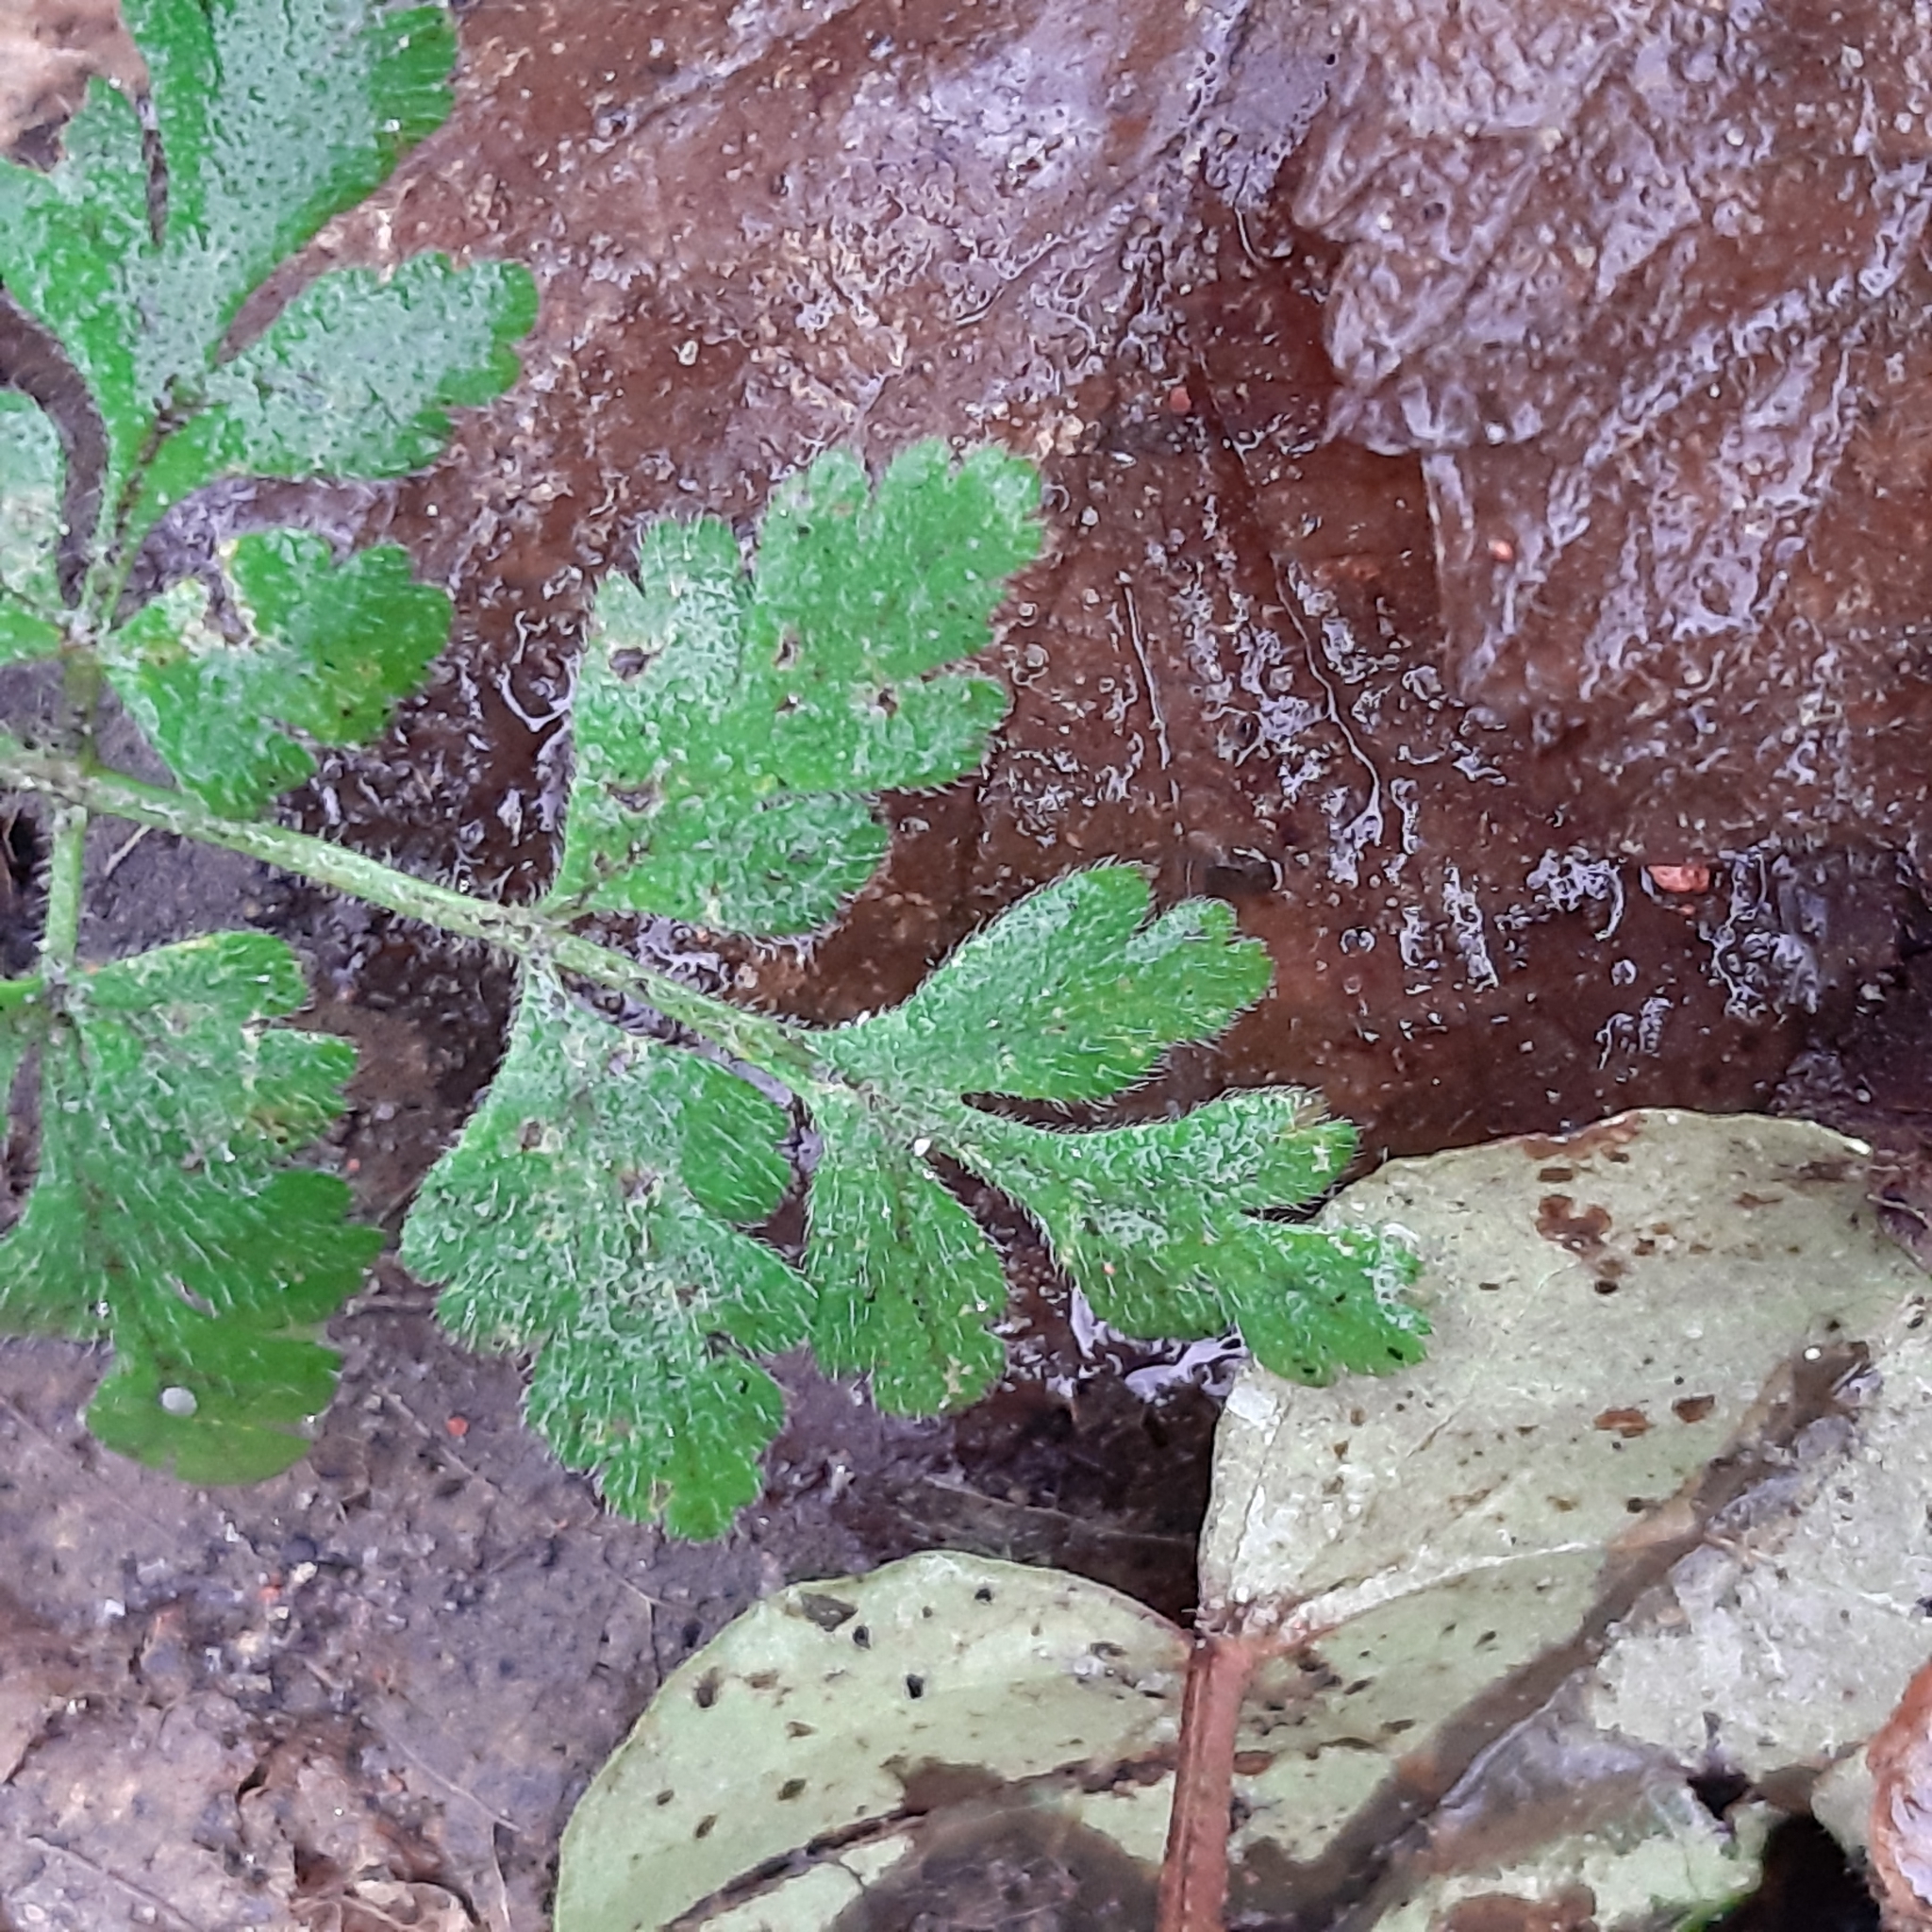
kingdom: Plantae
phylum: Tracheophyta
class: Magnoliopsida
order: Geraniales
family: Geraniaceae
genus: Geranium
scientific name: Geranium robertianum
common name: Herb-robert
